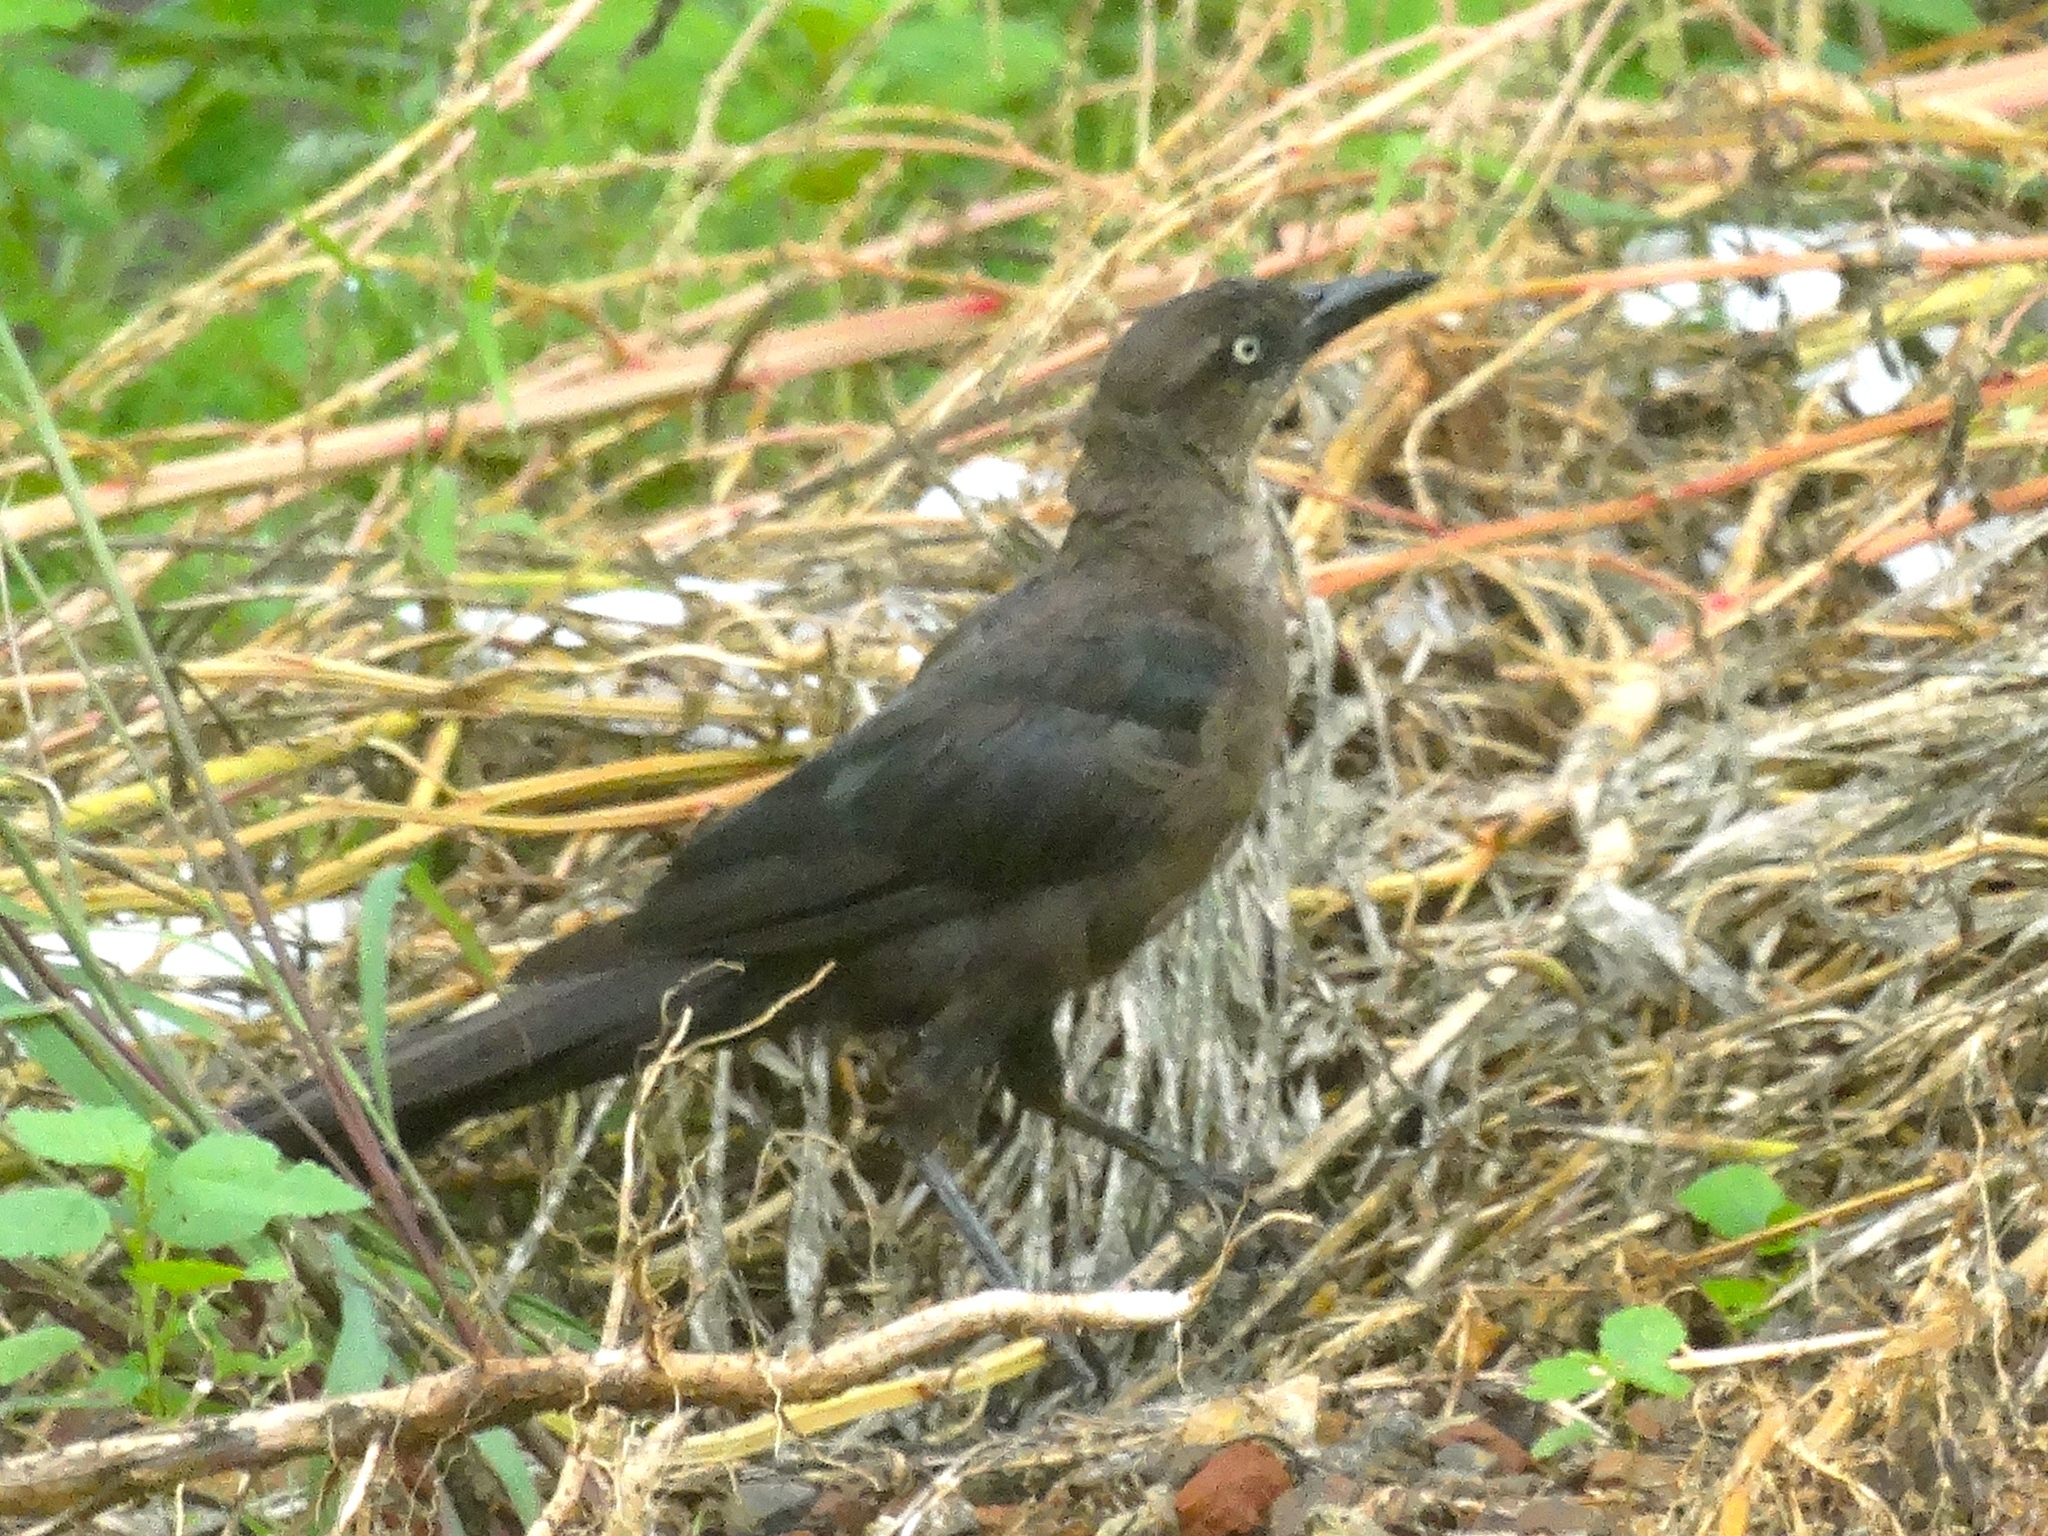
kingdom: Animalia
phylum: Chordata
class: Aves
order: Passeriformes
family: Icteridae
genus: Quiscalus
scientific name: Quiscalus mexicanus
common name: Great-tailed grackle
